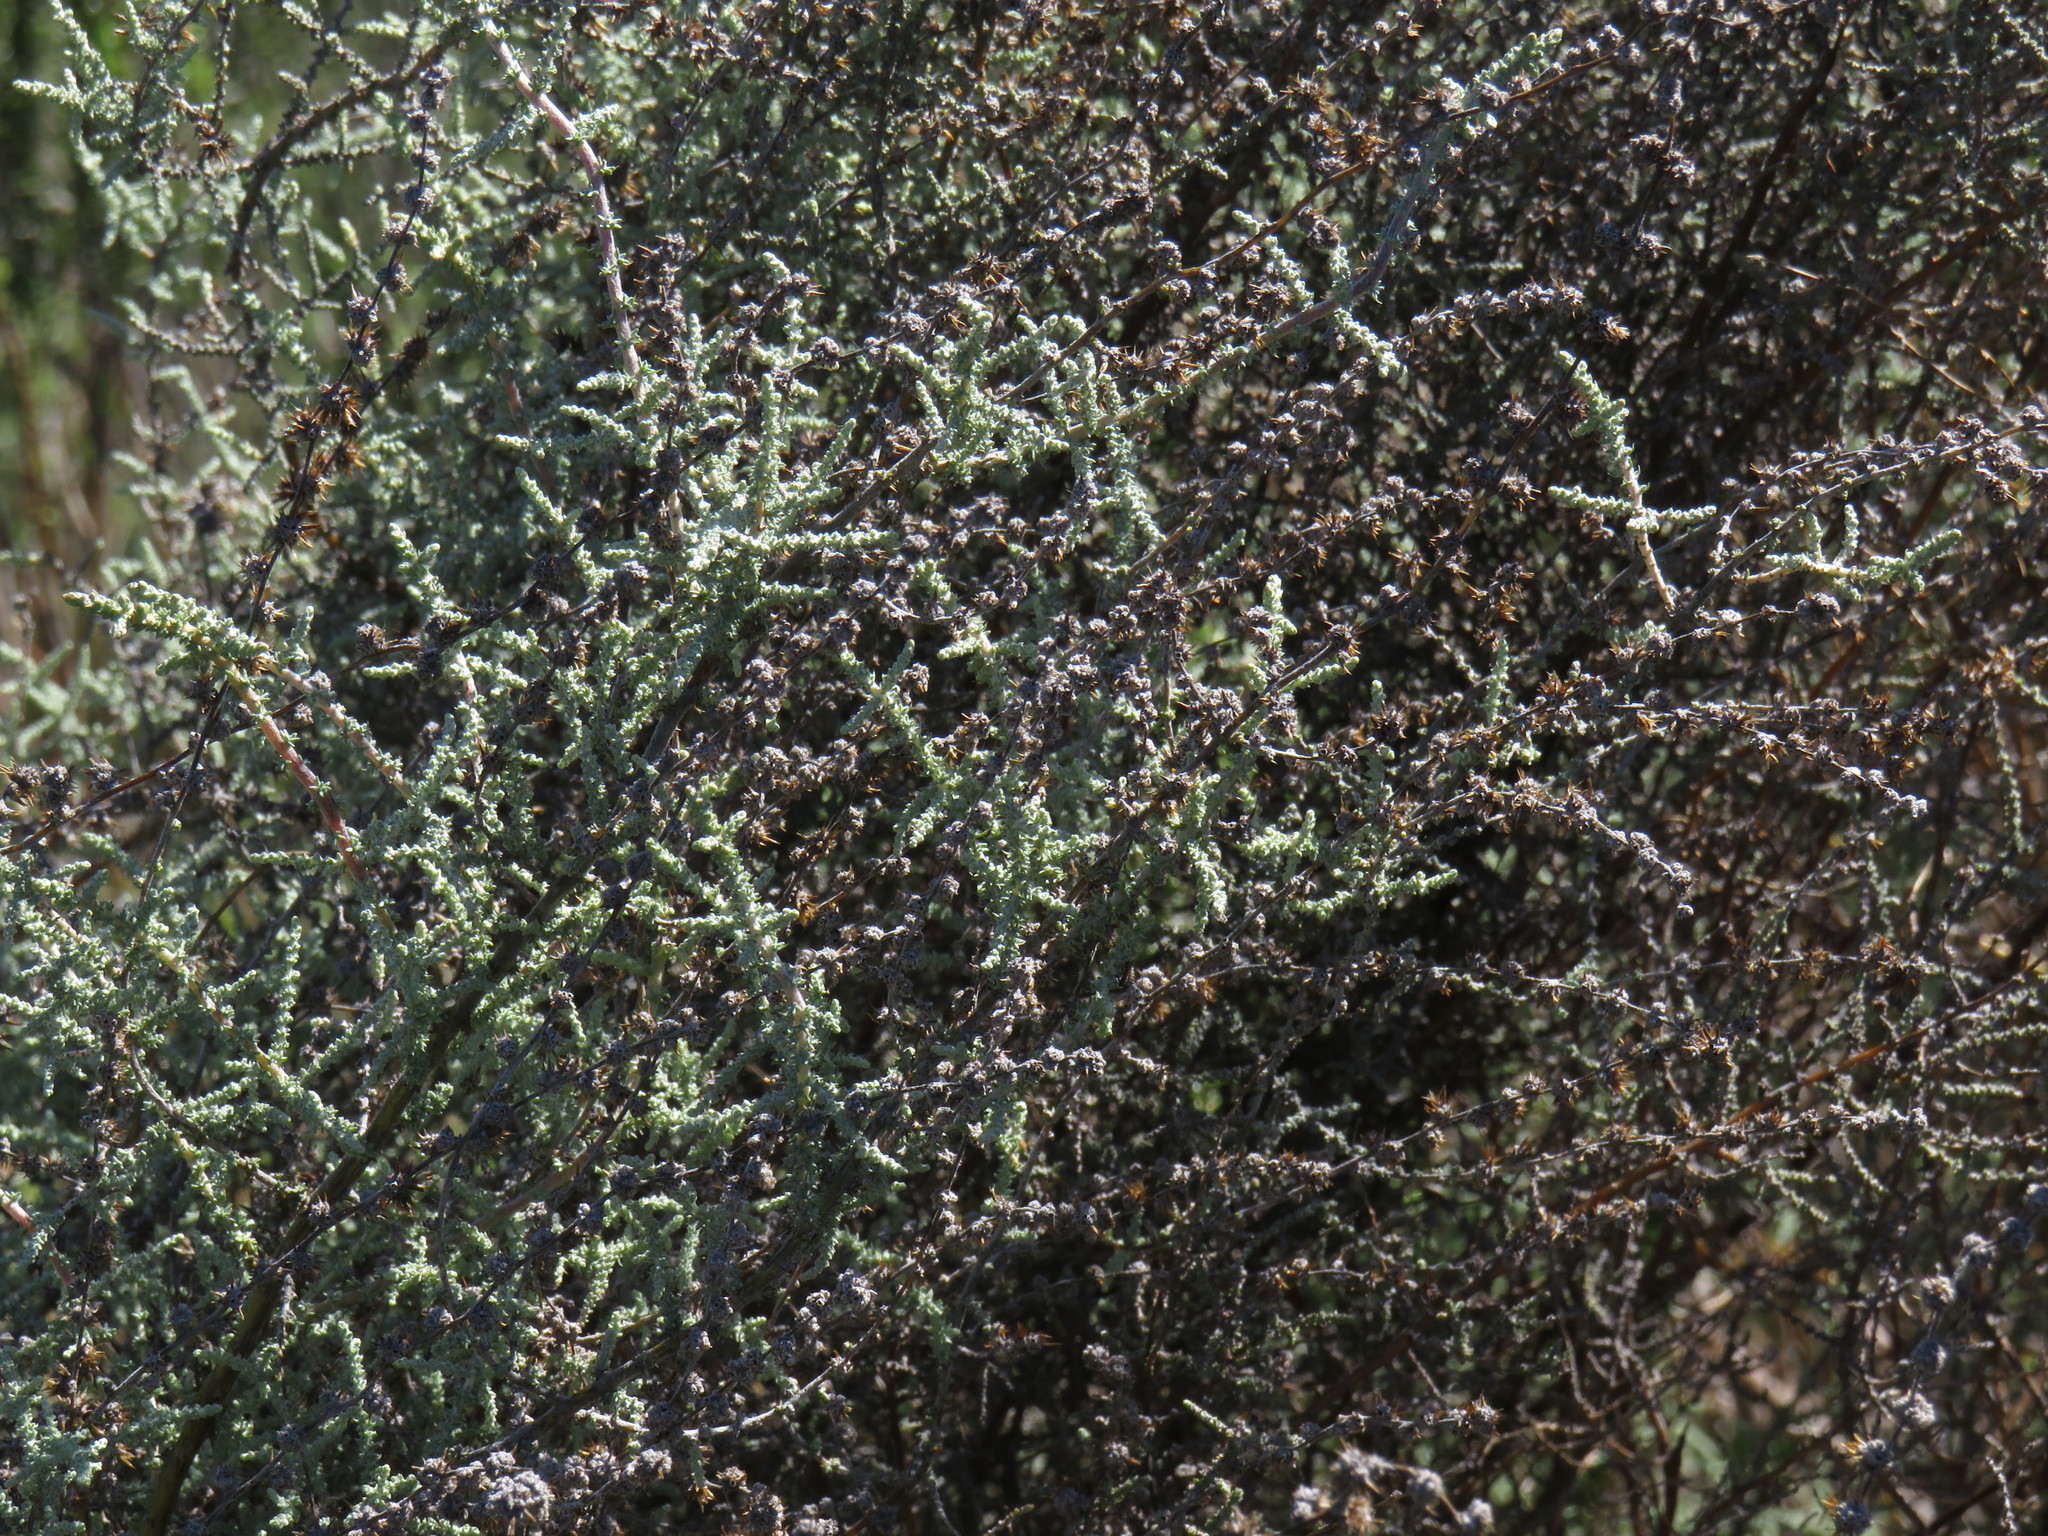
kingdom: Plantae
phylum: Tracheophyta
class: Magnoliopsida
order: Asterales
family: Asteraceae
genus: Seriphium
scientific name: Seriphium plumosum
